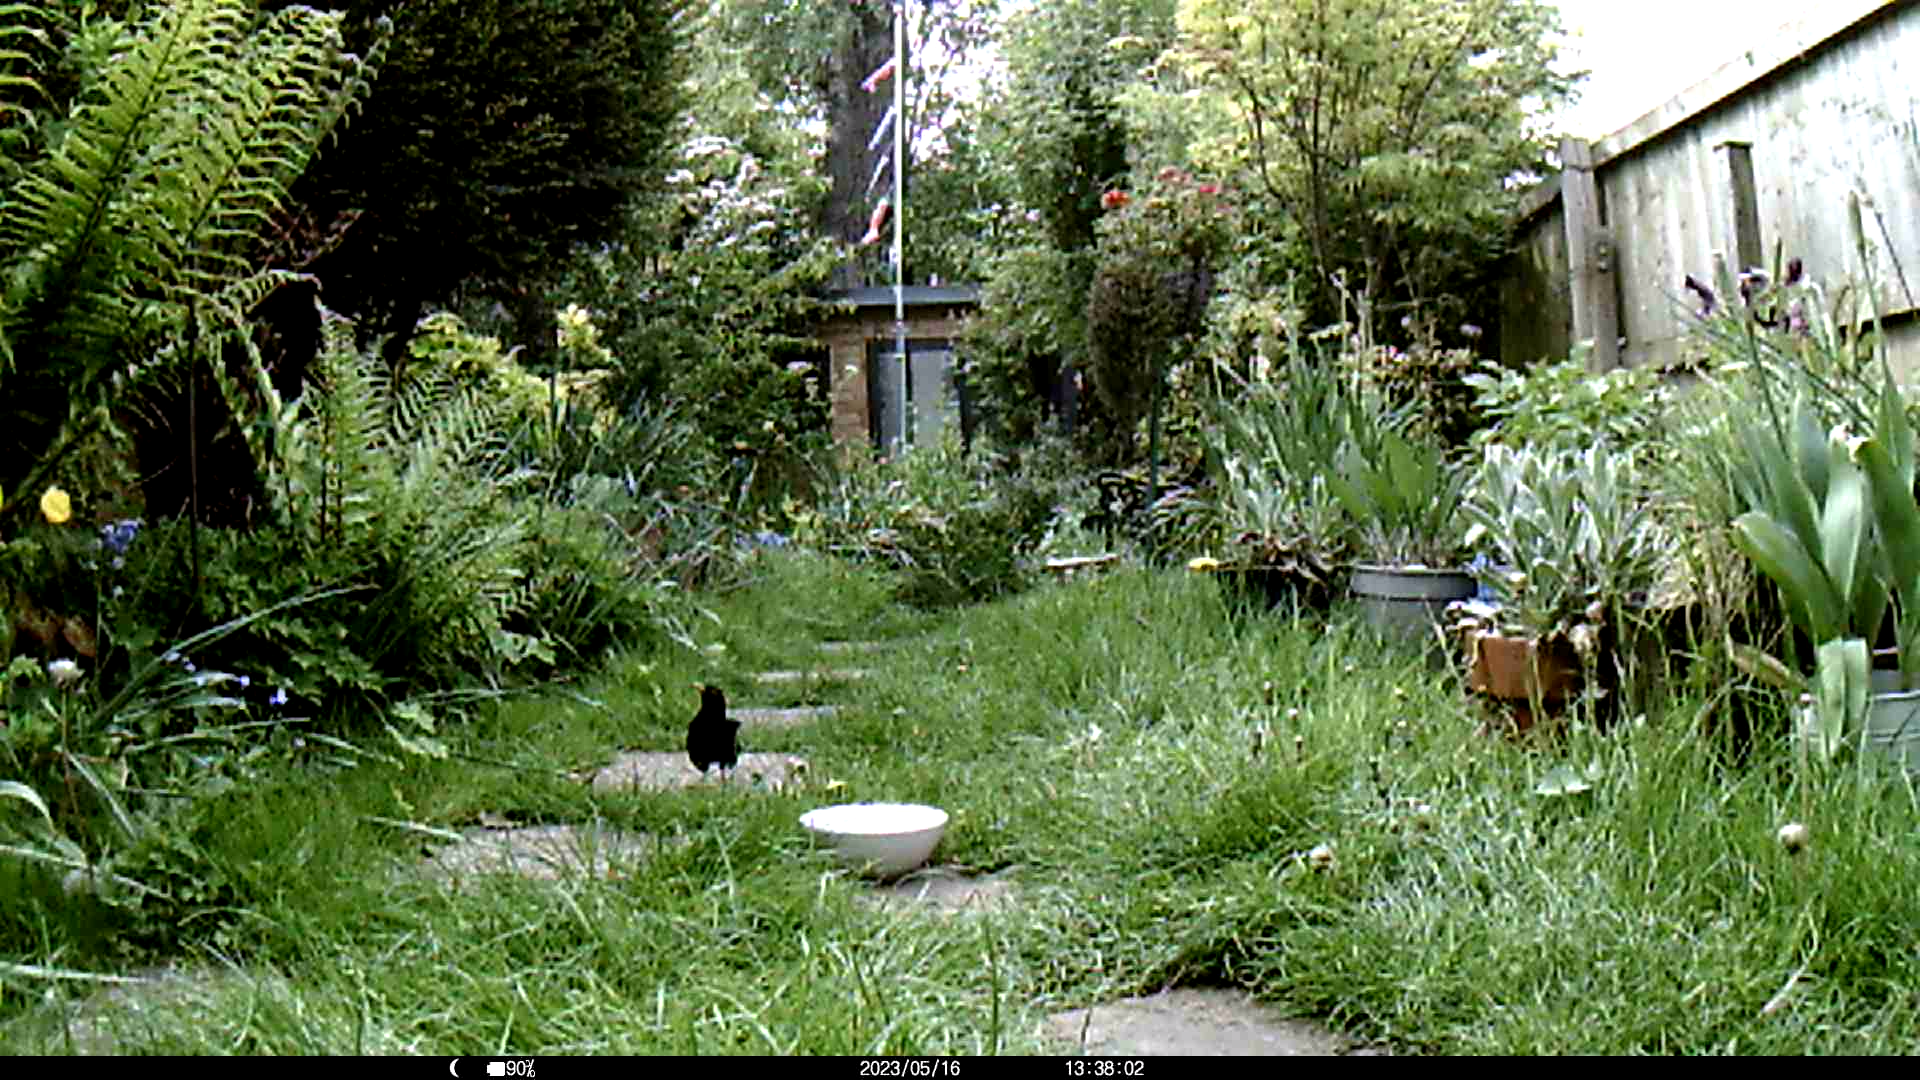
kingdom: Animalia
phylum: Chordata
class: Aves
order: Passeriformes
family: Turdidae
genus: Turdus
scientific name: Turdus merula
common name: Common blackbird
